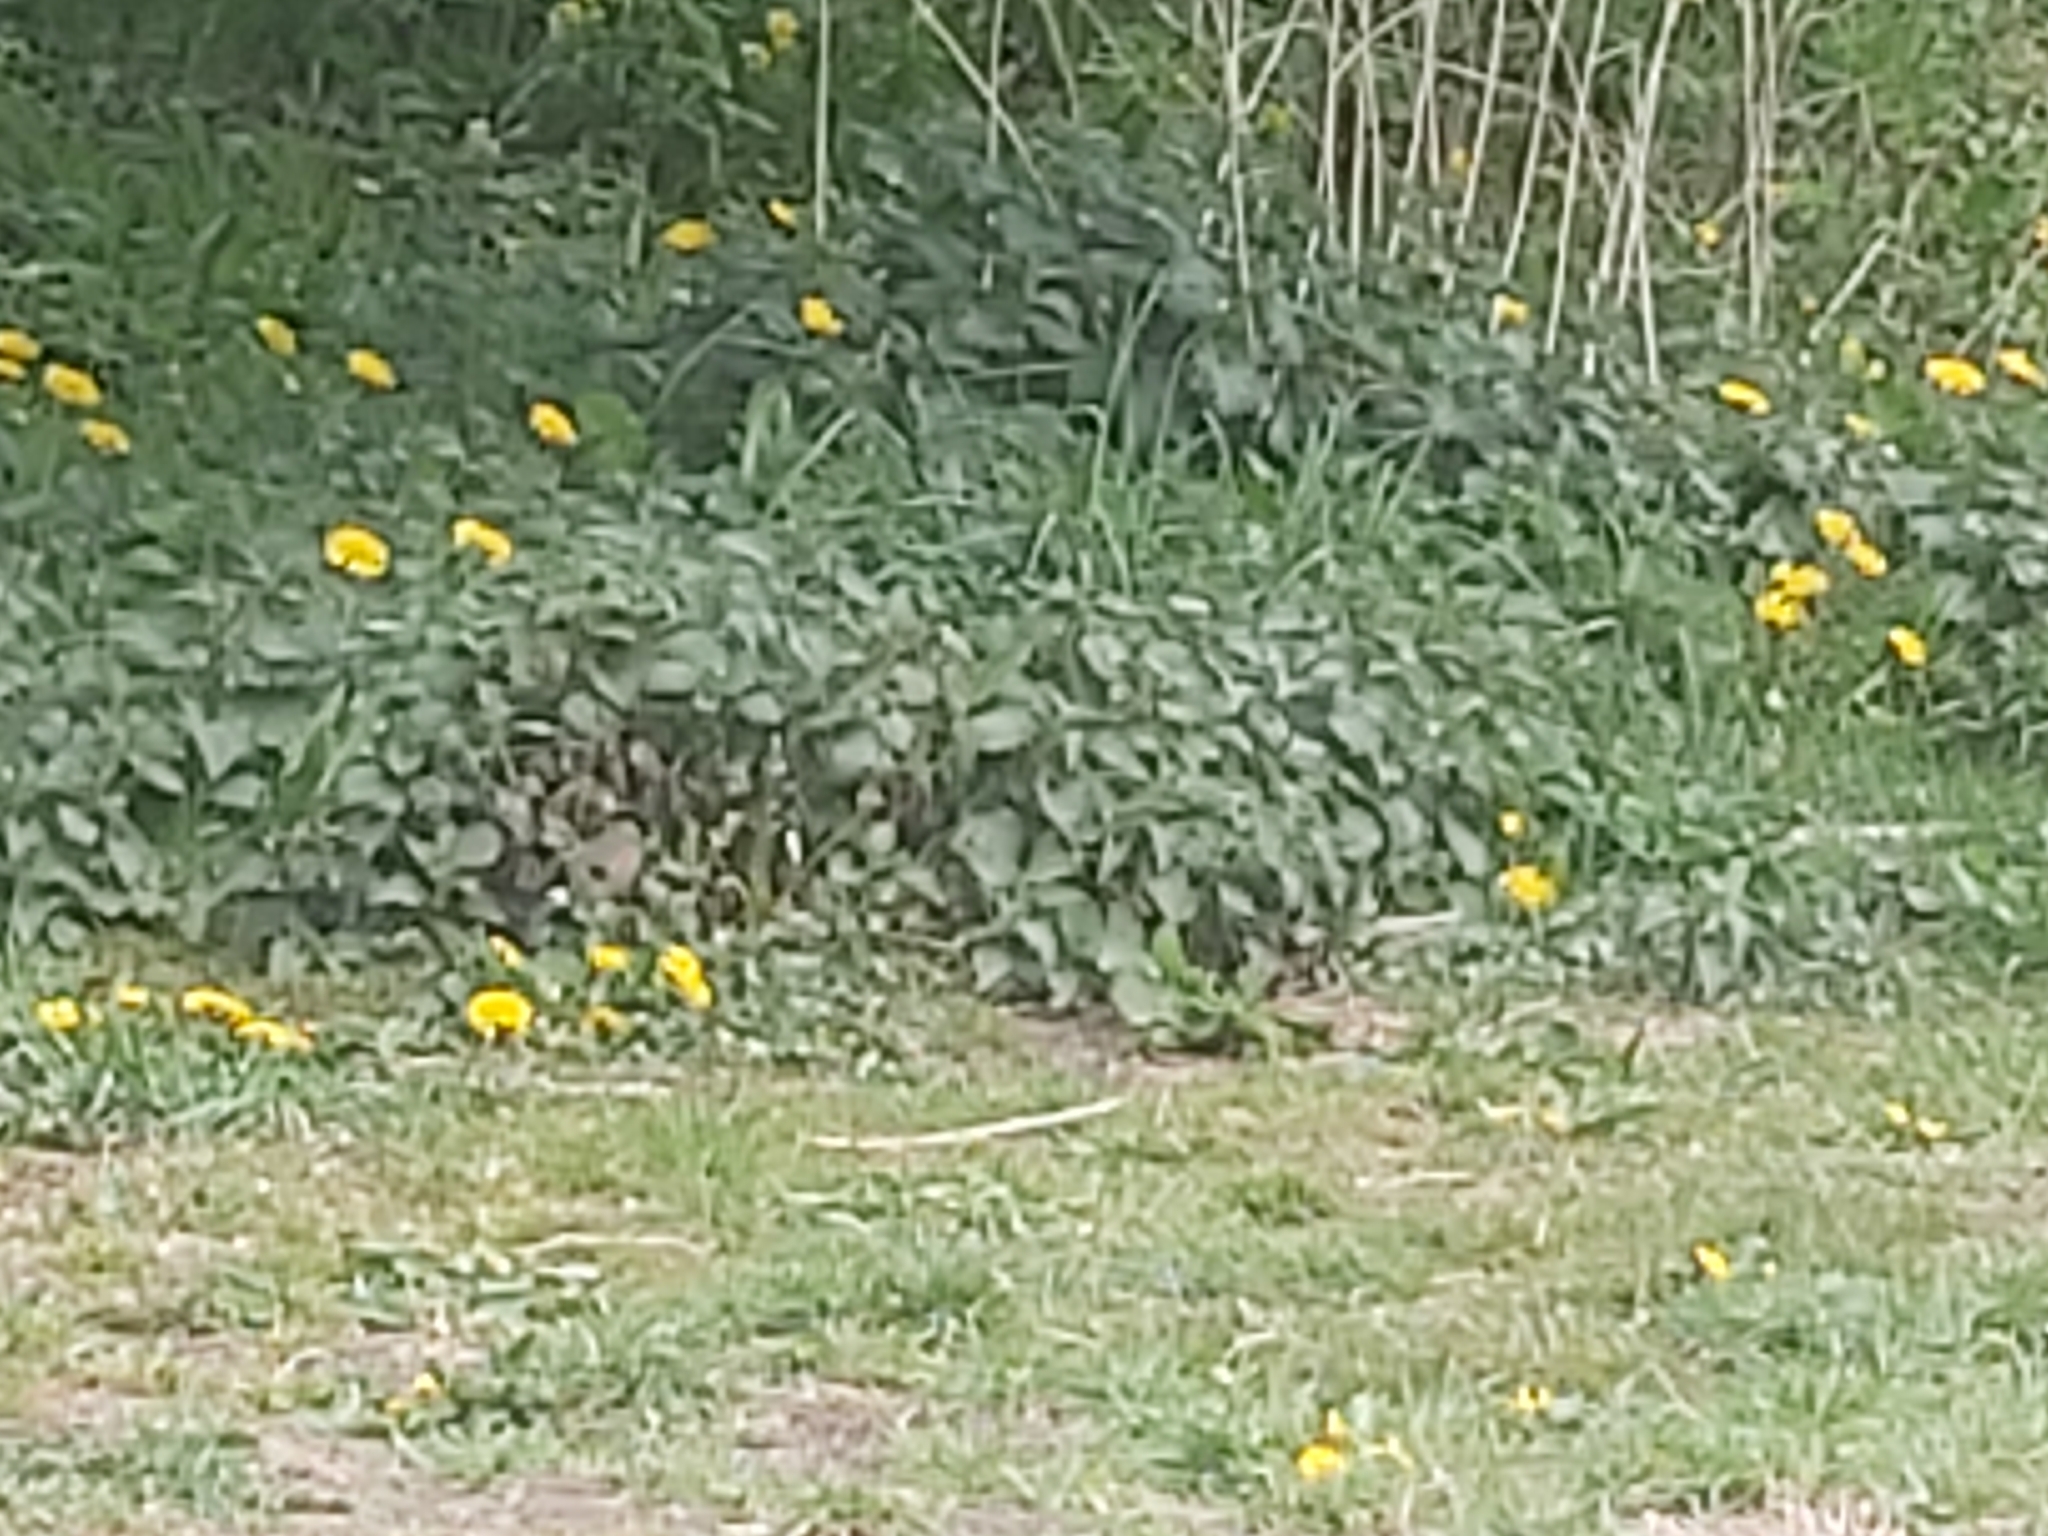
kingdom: Animalia
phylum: Chordata
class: Aves
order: Passeriformes
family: Fringillidae
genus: Pyrrhula
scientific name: Pyrrhula pyrrhula
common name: Eurasian bullfinch
